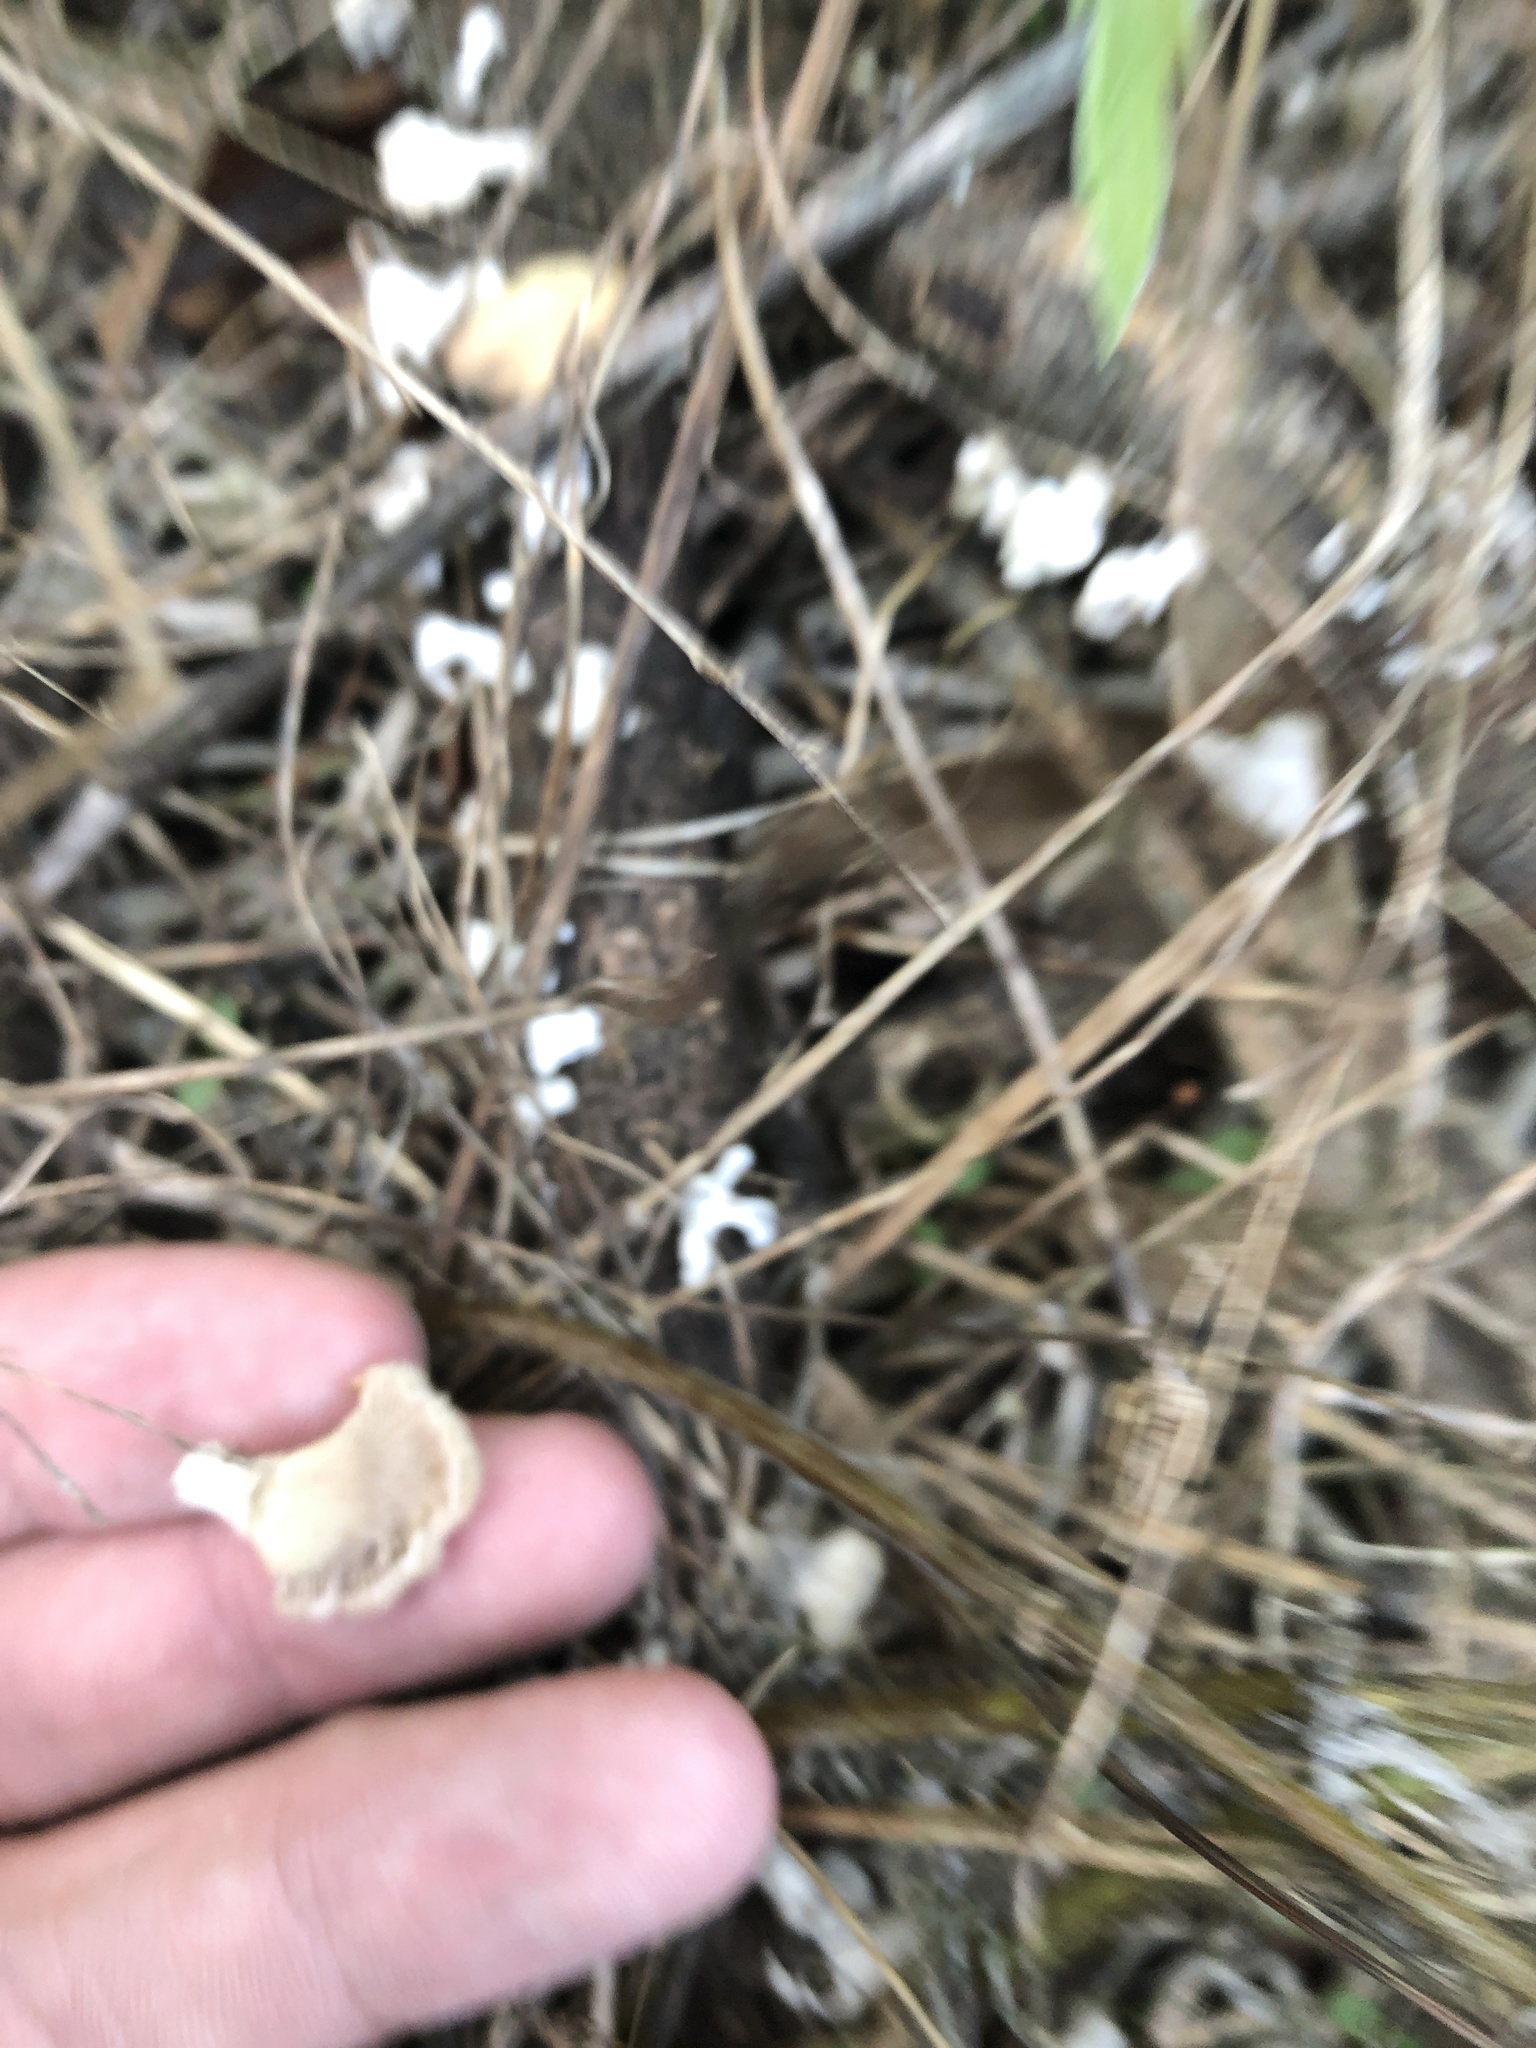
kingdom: Fungi
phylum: Basidiomycota
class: Agaricomycetes
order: Agaricales
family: Schizophyllaceae
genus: Schizophyllum
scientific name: Schizophyllum commune
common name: Common porecrust
